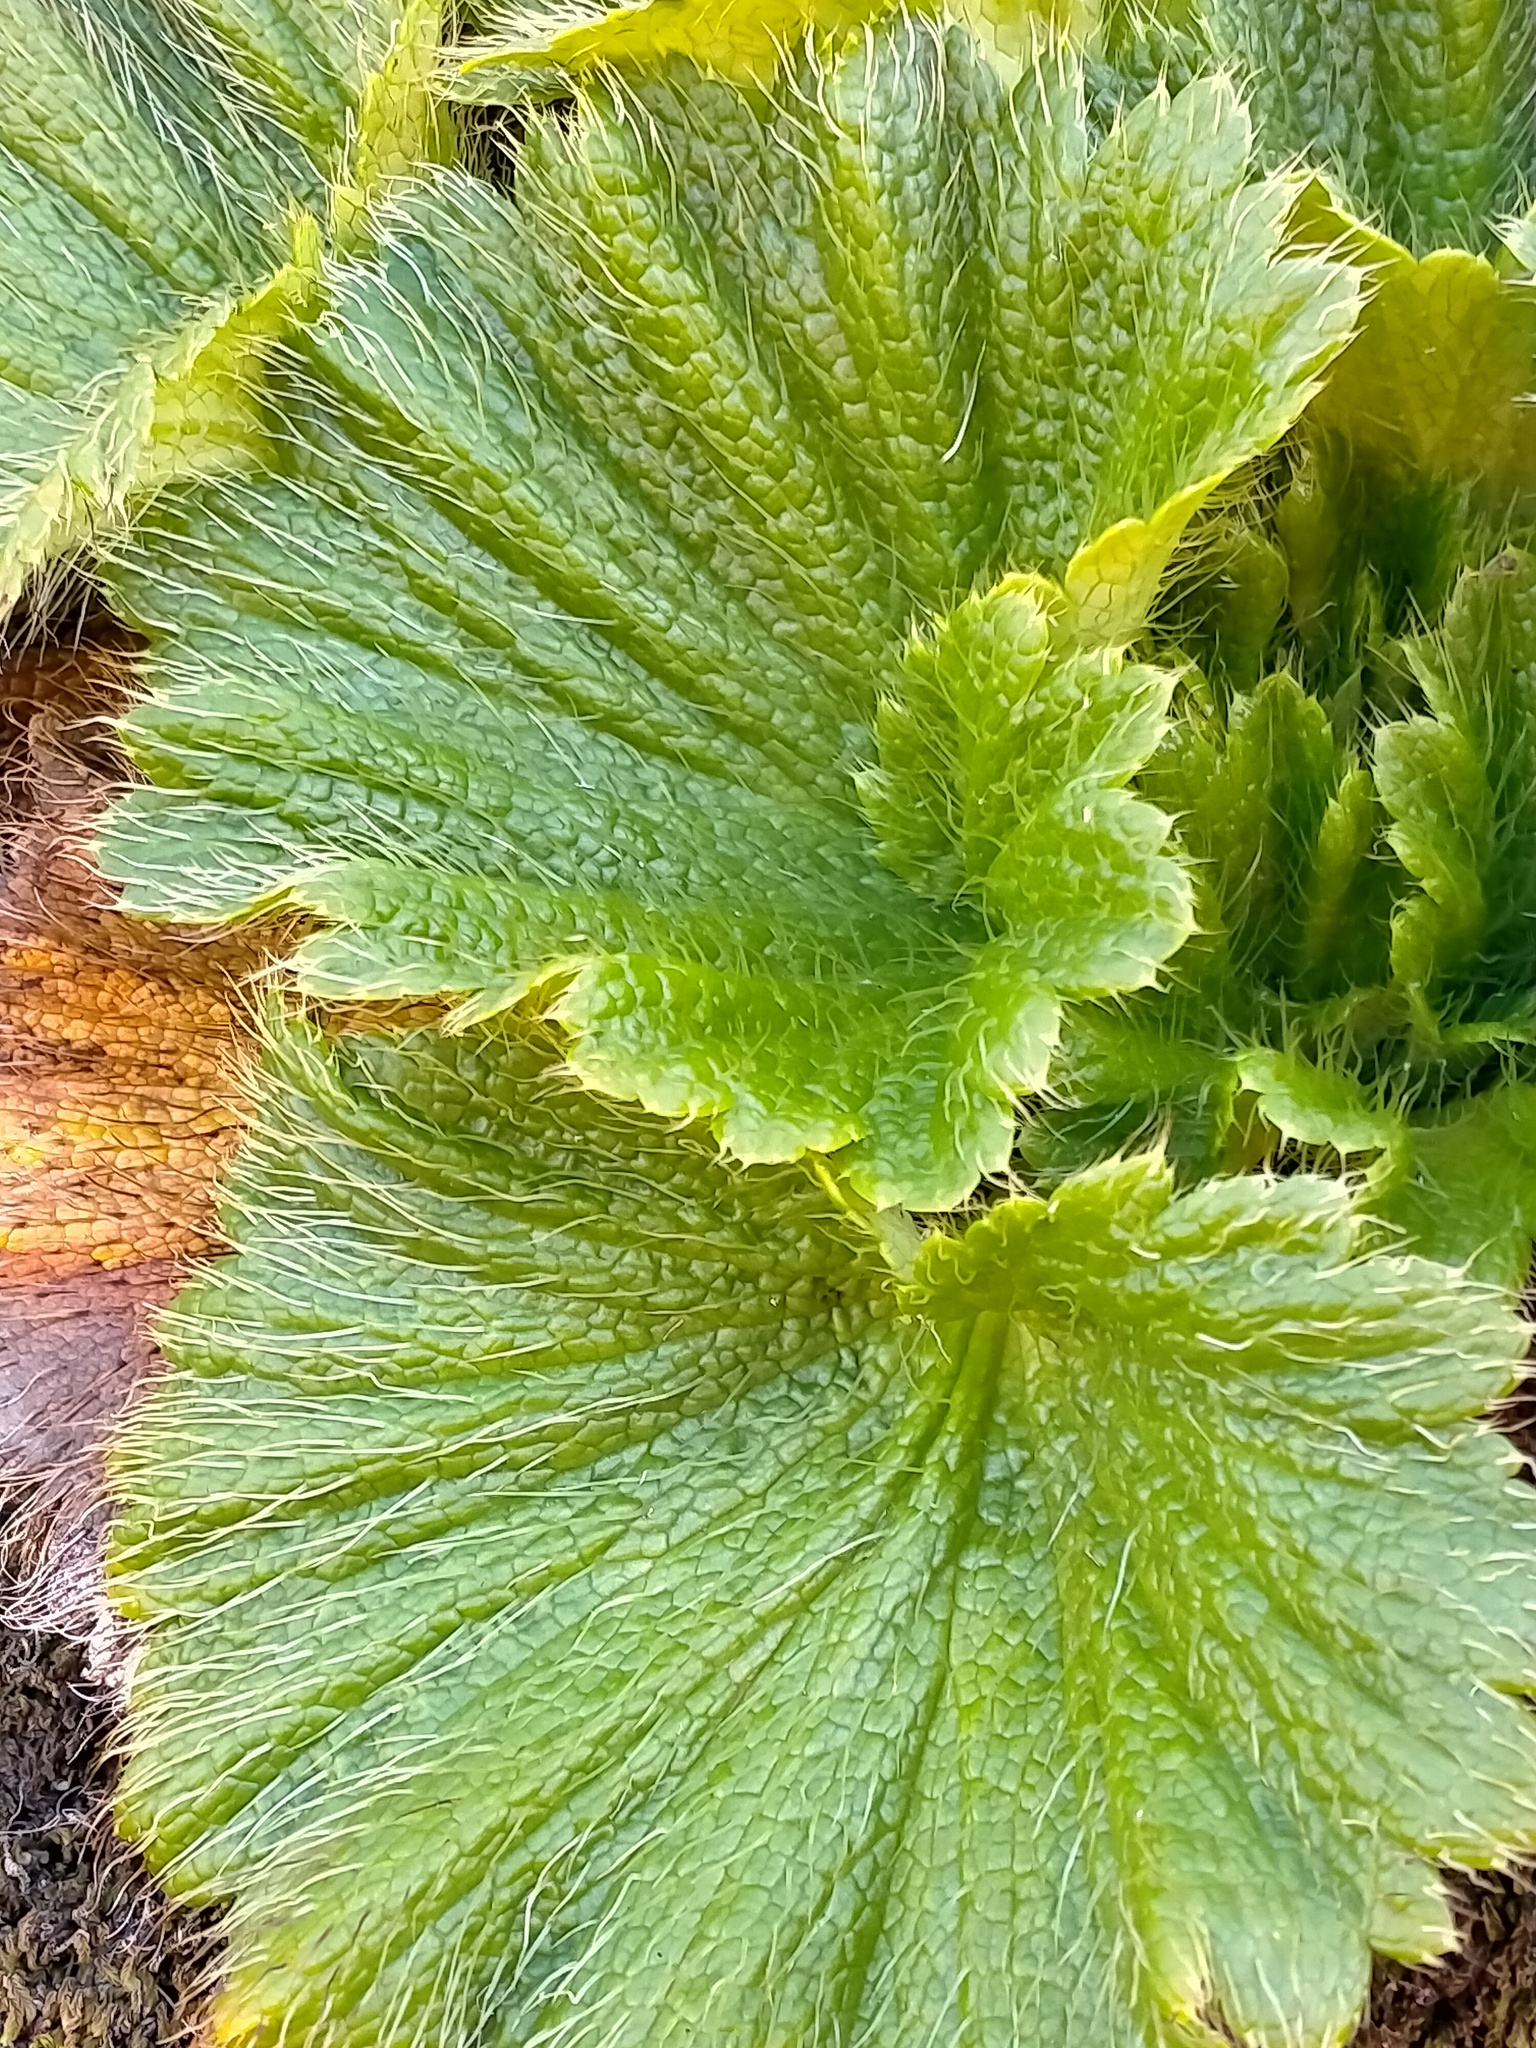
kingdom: Plantae
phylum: Tracheophyta
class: Magnoliopsida
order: Apiales
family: Apiaceae
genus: Azorella
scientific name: Azorella polaris
